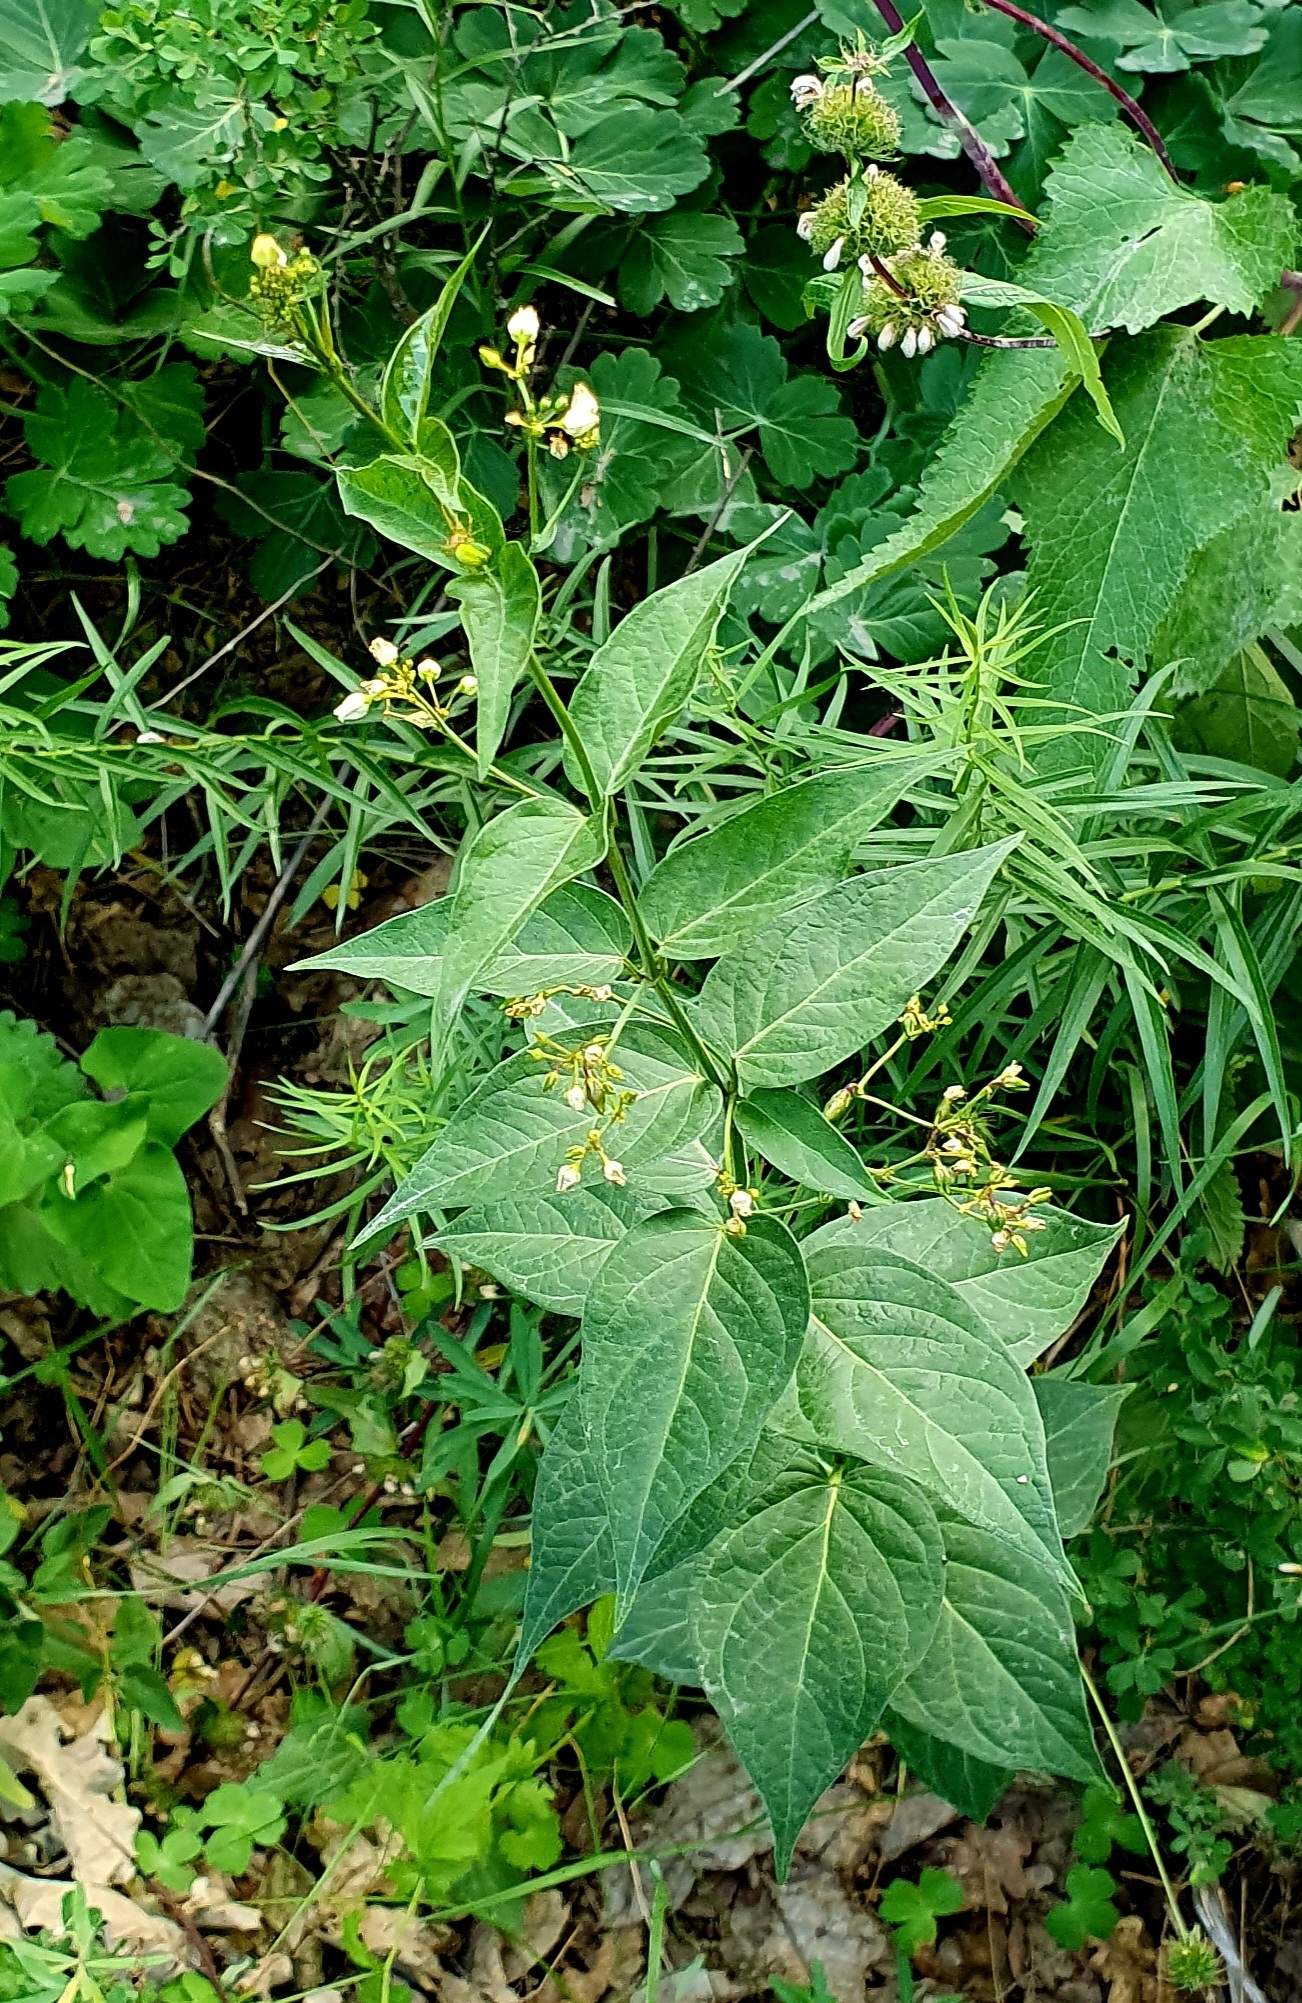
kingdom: Plantae
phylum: Tracheophyta
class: Magnoliopsida
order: Gentianales
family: Apocynaceae
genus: Vincetoxicum
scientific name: Vincetoxicum hirundinaria
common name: White swallowwort
